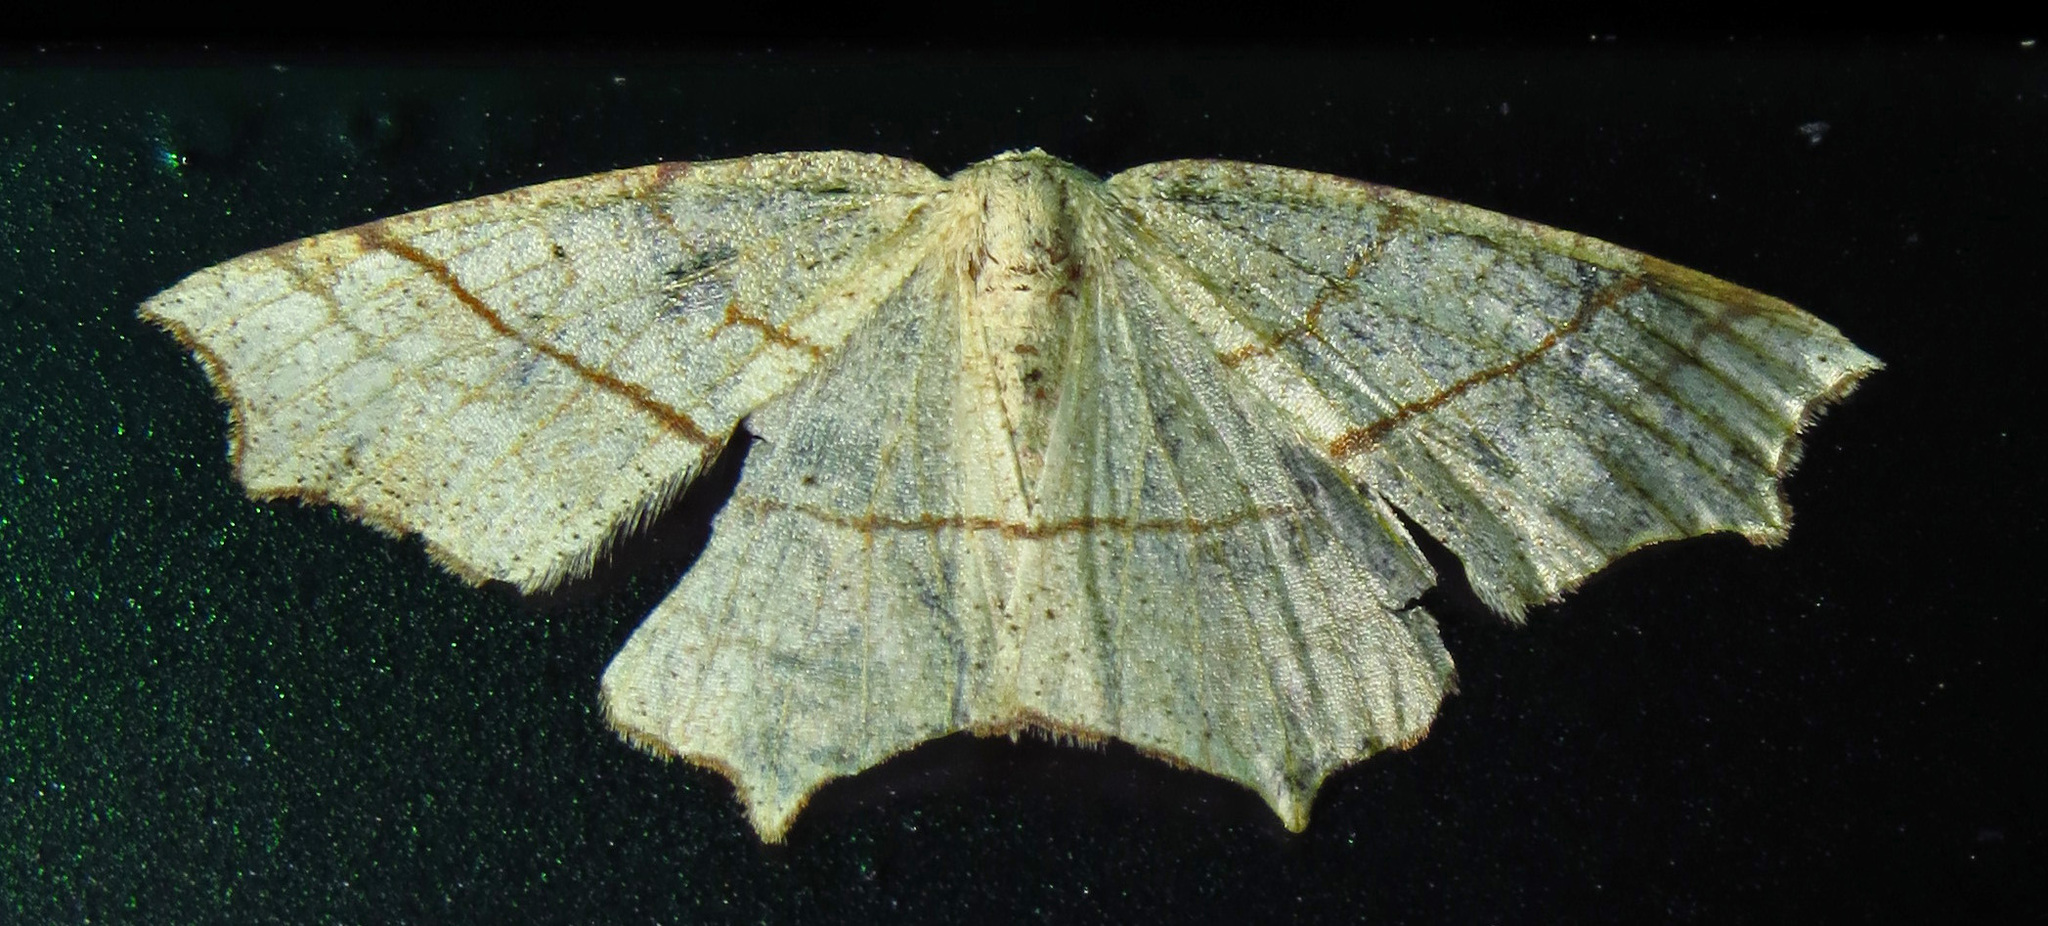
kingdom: Animalia
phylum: Arthropoda
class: Insecta
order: Lepidoptera
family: Geometridae
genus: Besma
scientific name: Besma quercivoraria
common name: Oak besma
